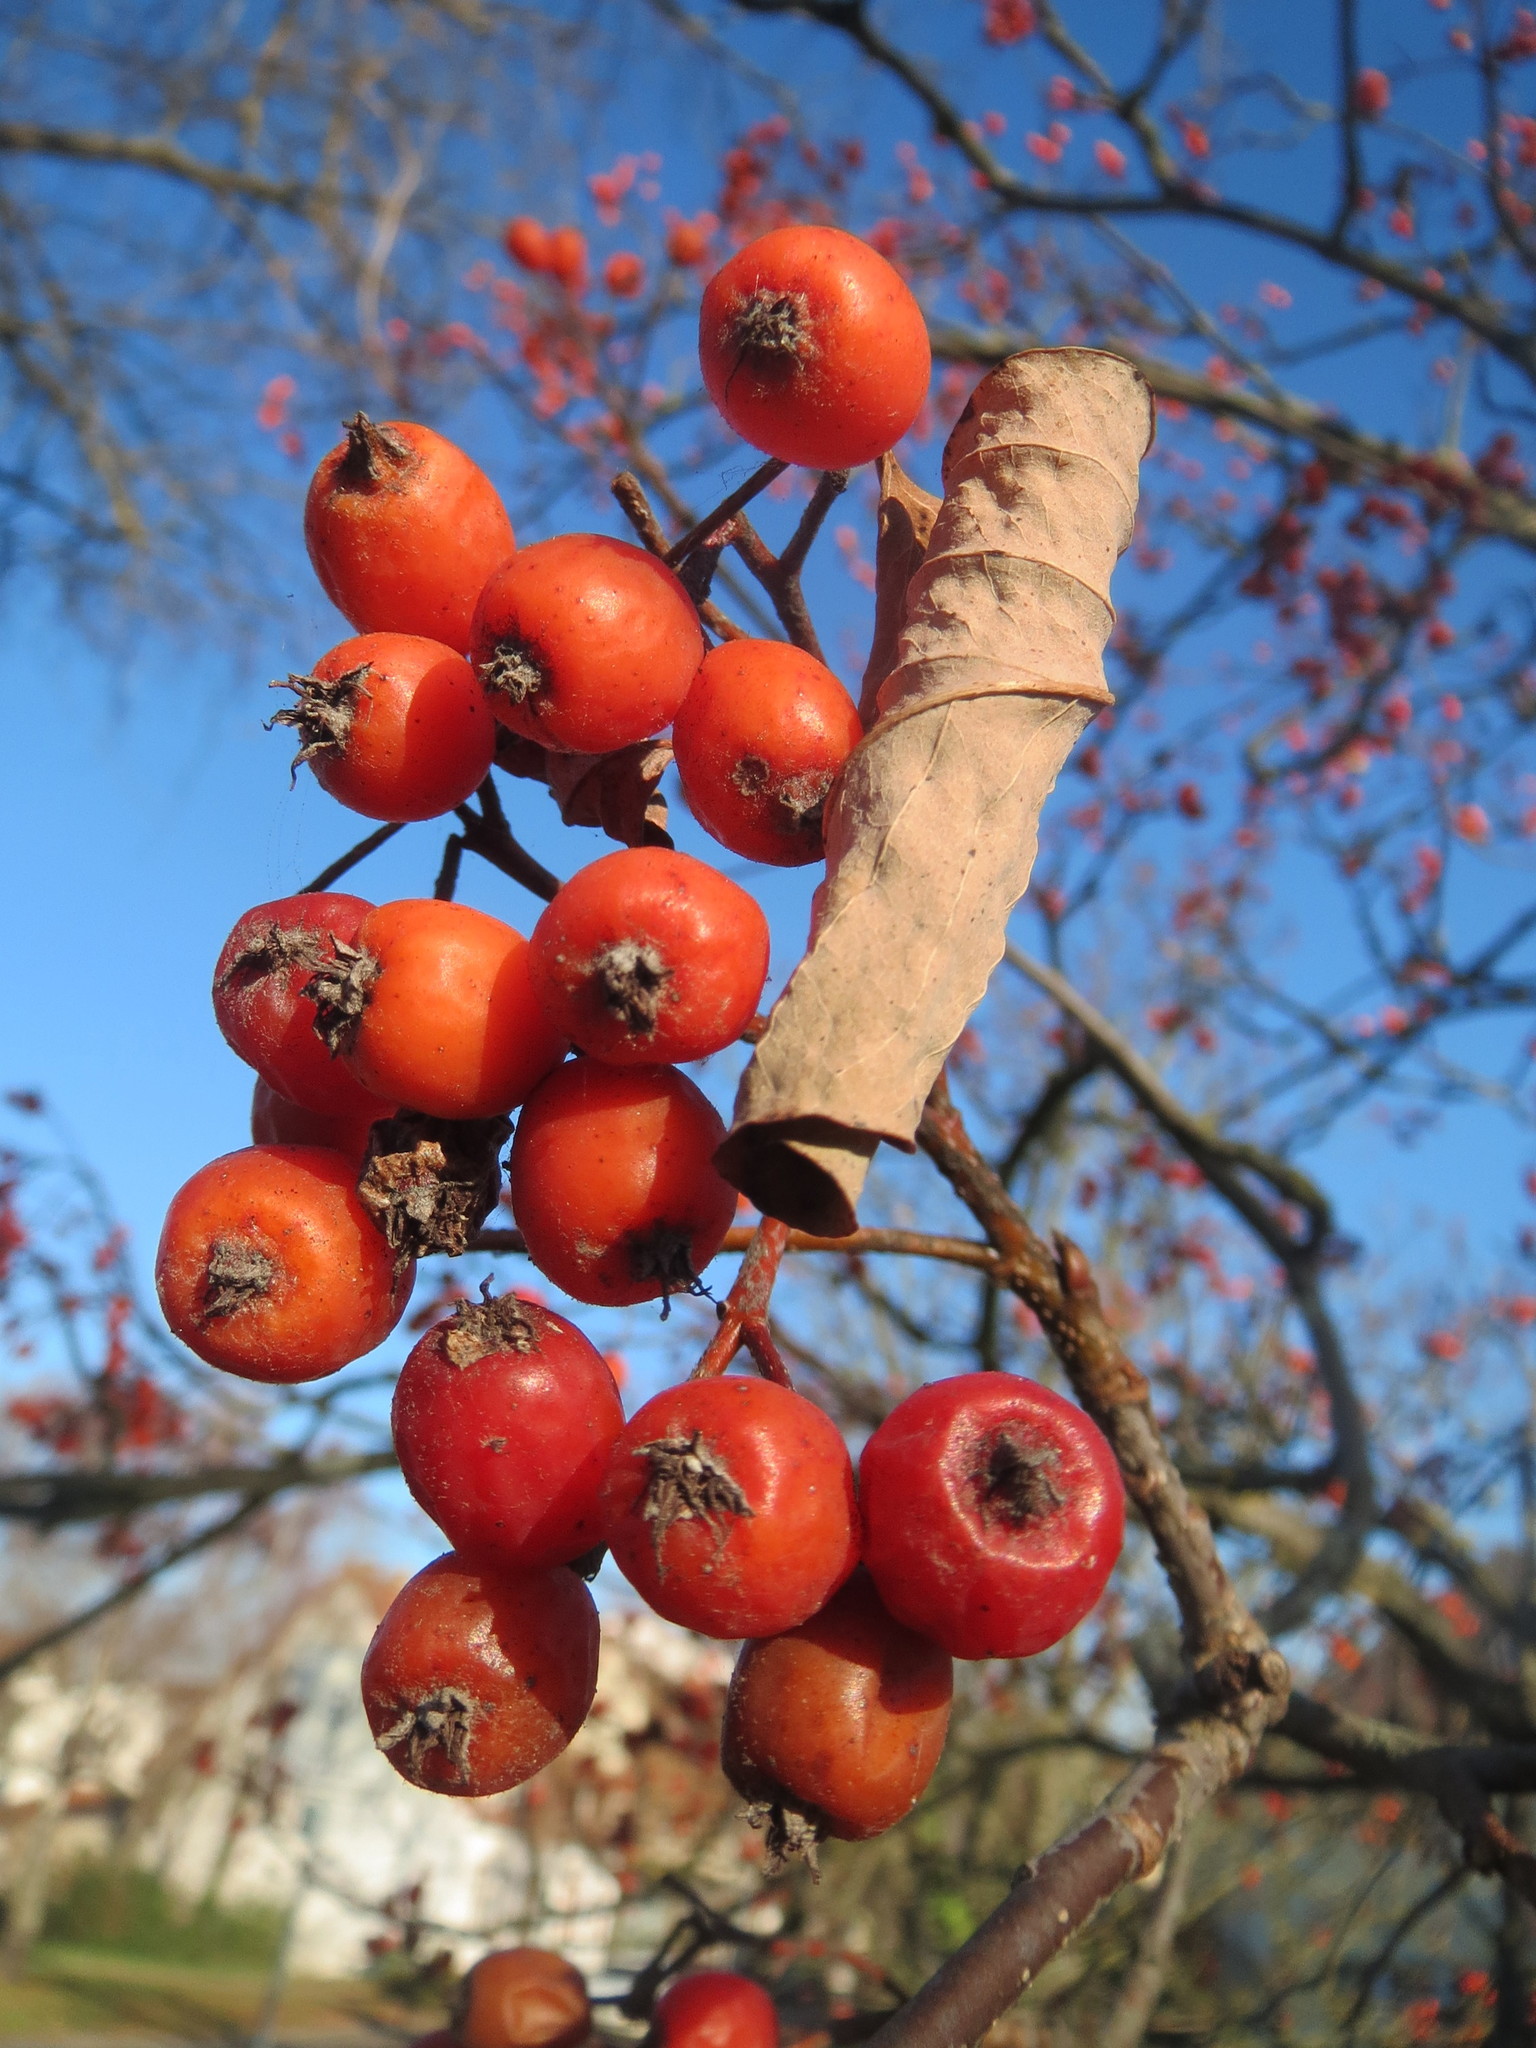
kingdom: Plantae
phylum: Tracheophyta
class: Magnoliopsida
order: Rosales
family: Rosaceae
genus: Scandosorbus
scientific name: Scandosorbus intermedia
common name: Swedish whitebeam
